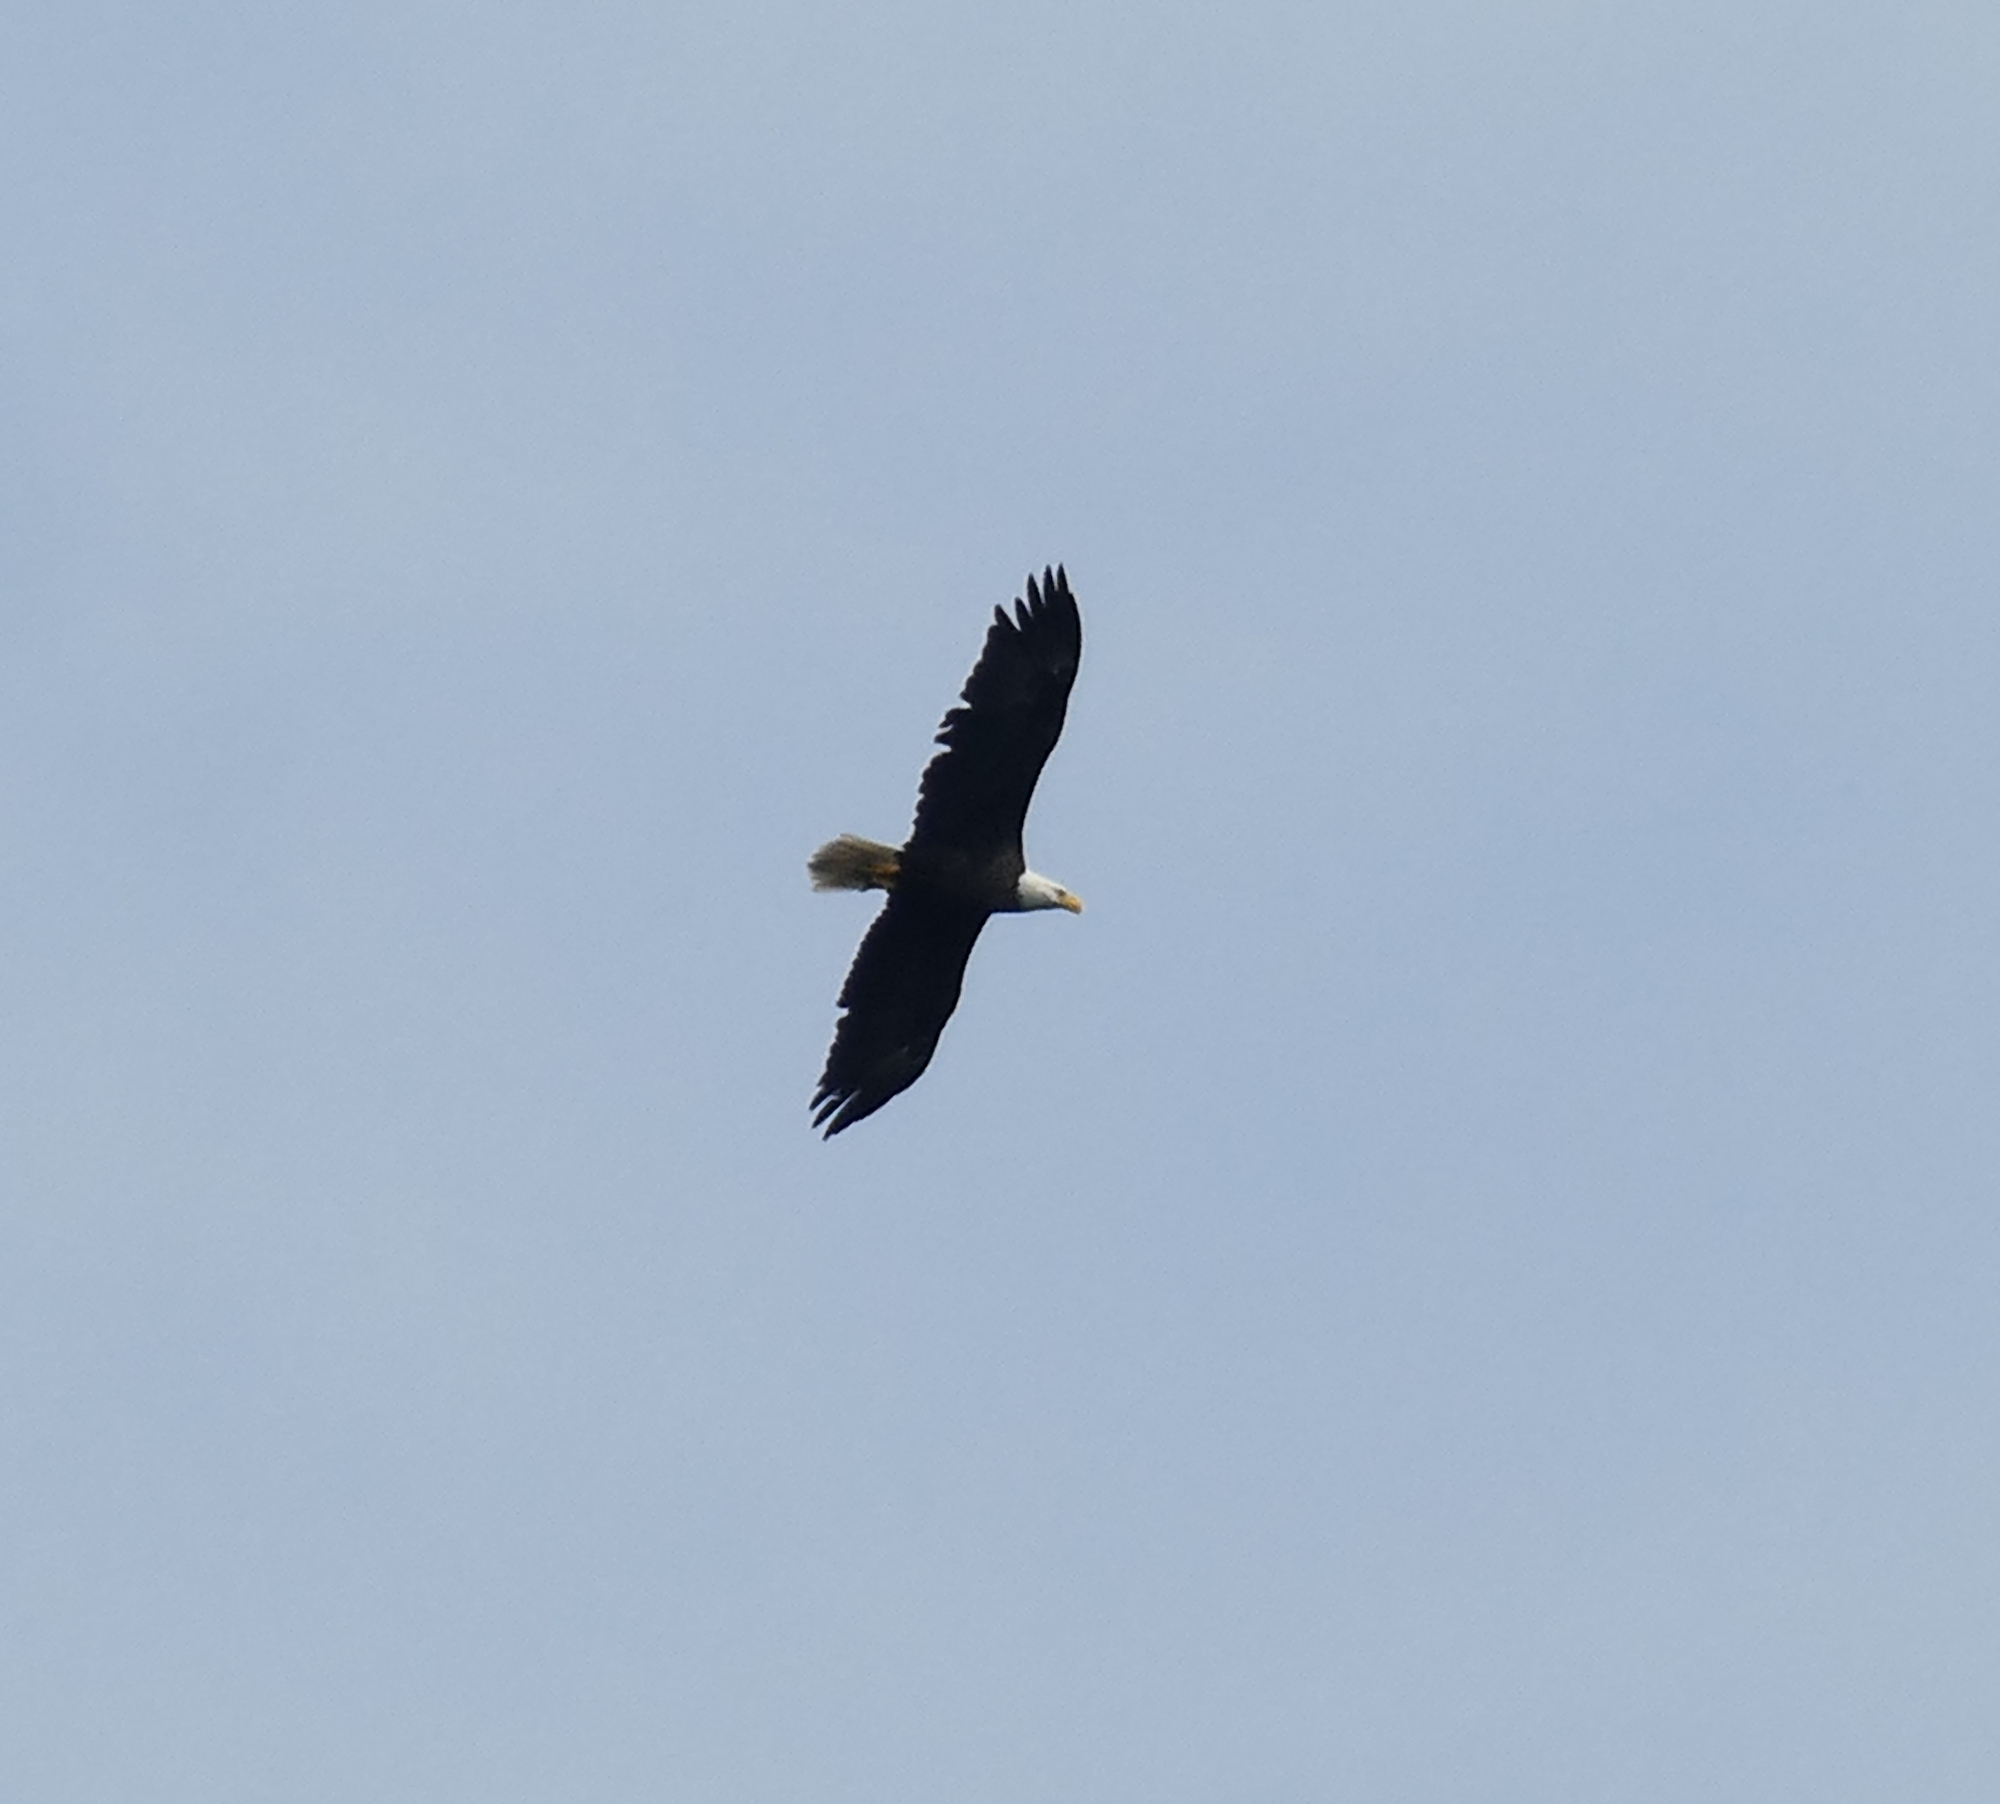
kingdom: Animalia
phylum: Chordata
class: Aves
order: Accipitriformes
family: Accipitridae
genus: Haliaeetus
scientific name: Haliaeetus leucocephalus
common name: Bald eagle
